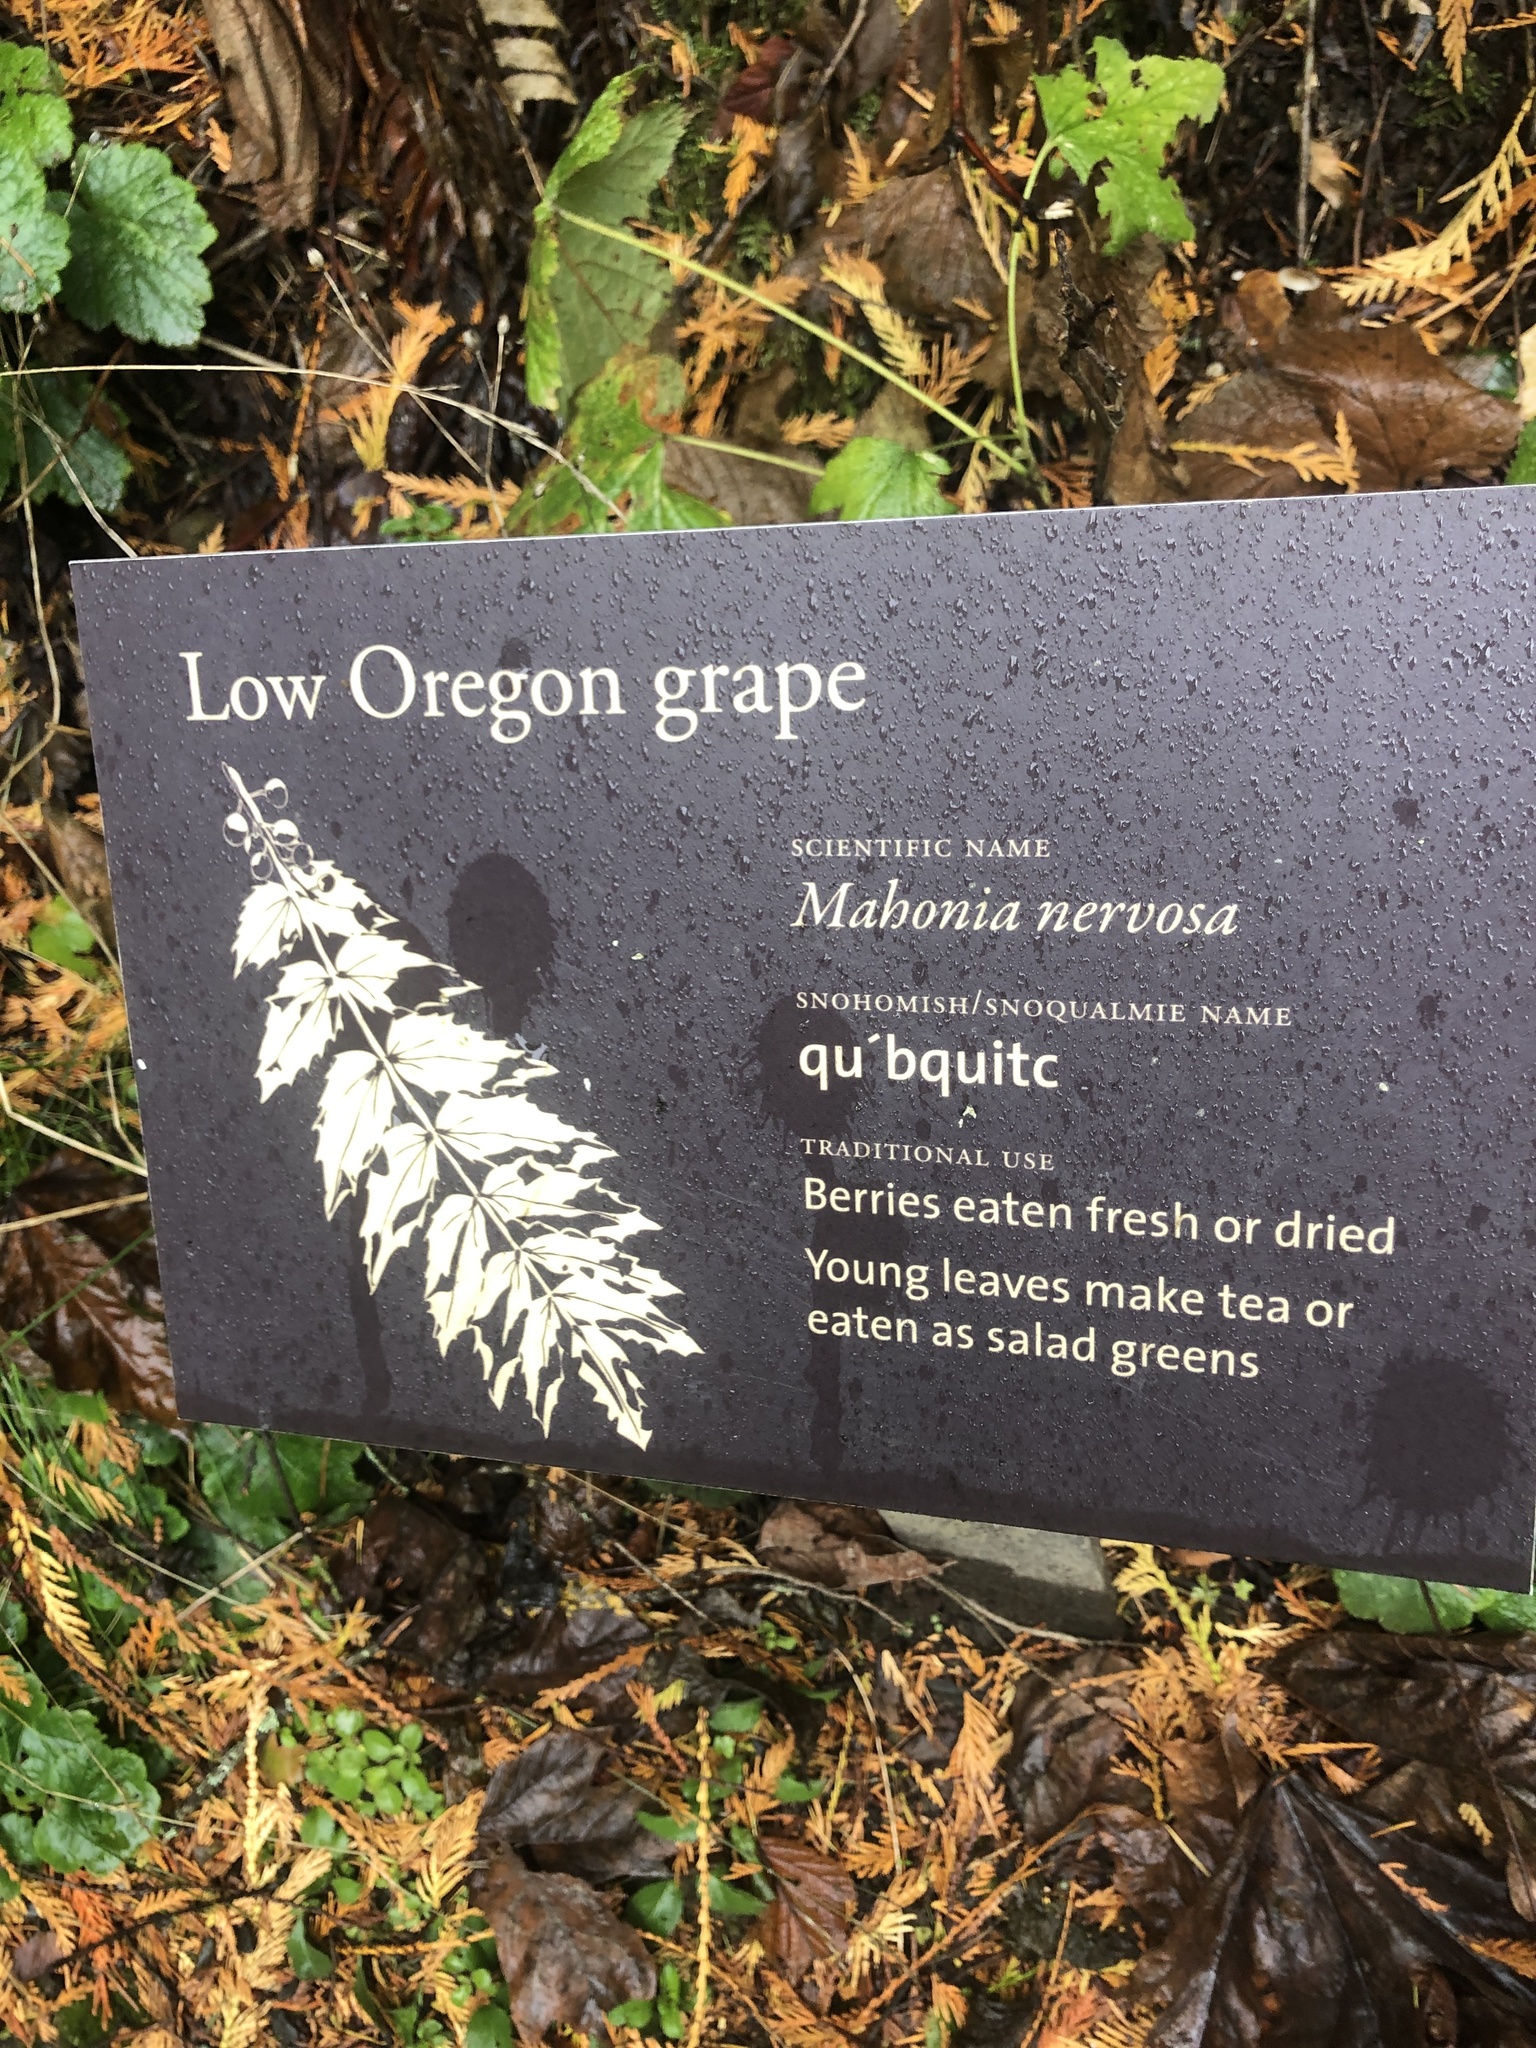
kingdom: Plantae
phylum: Tracheophyta
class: Magnoliopsida
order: Ranunculales
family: Berberidaceae
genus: Mahonia
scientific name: Mahonia nervosa
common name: Cascade oregon-grape
